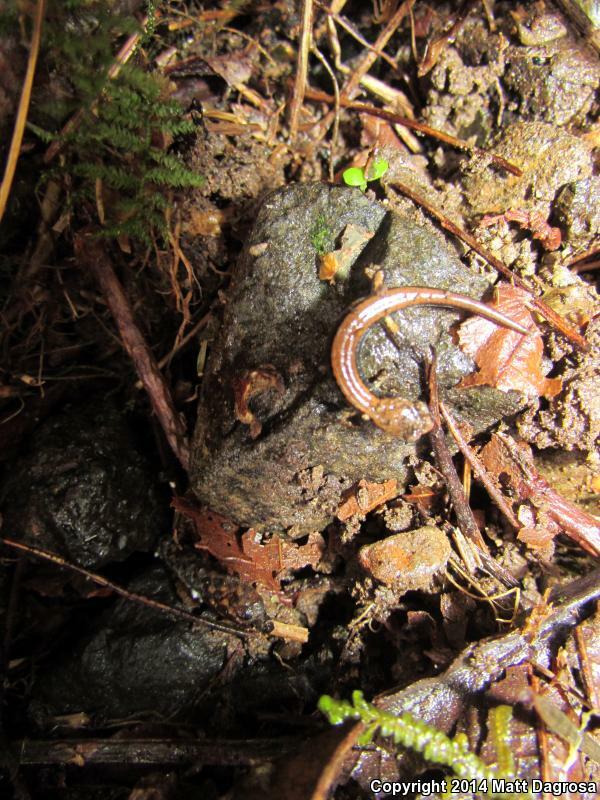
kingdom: Animalia
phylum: Chordata
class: Amphibia
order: Caudata
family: Plethodontidae
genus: Plethodon
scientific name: Plethodon vehiculum
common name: Western red-backed salamander
